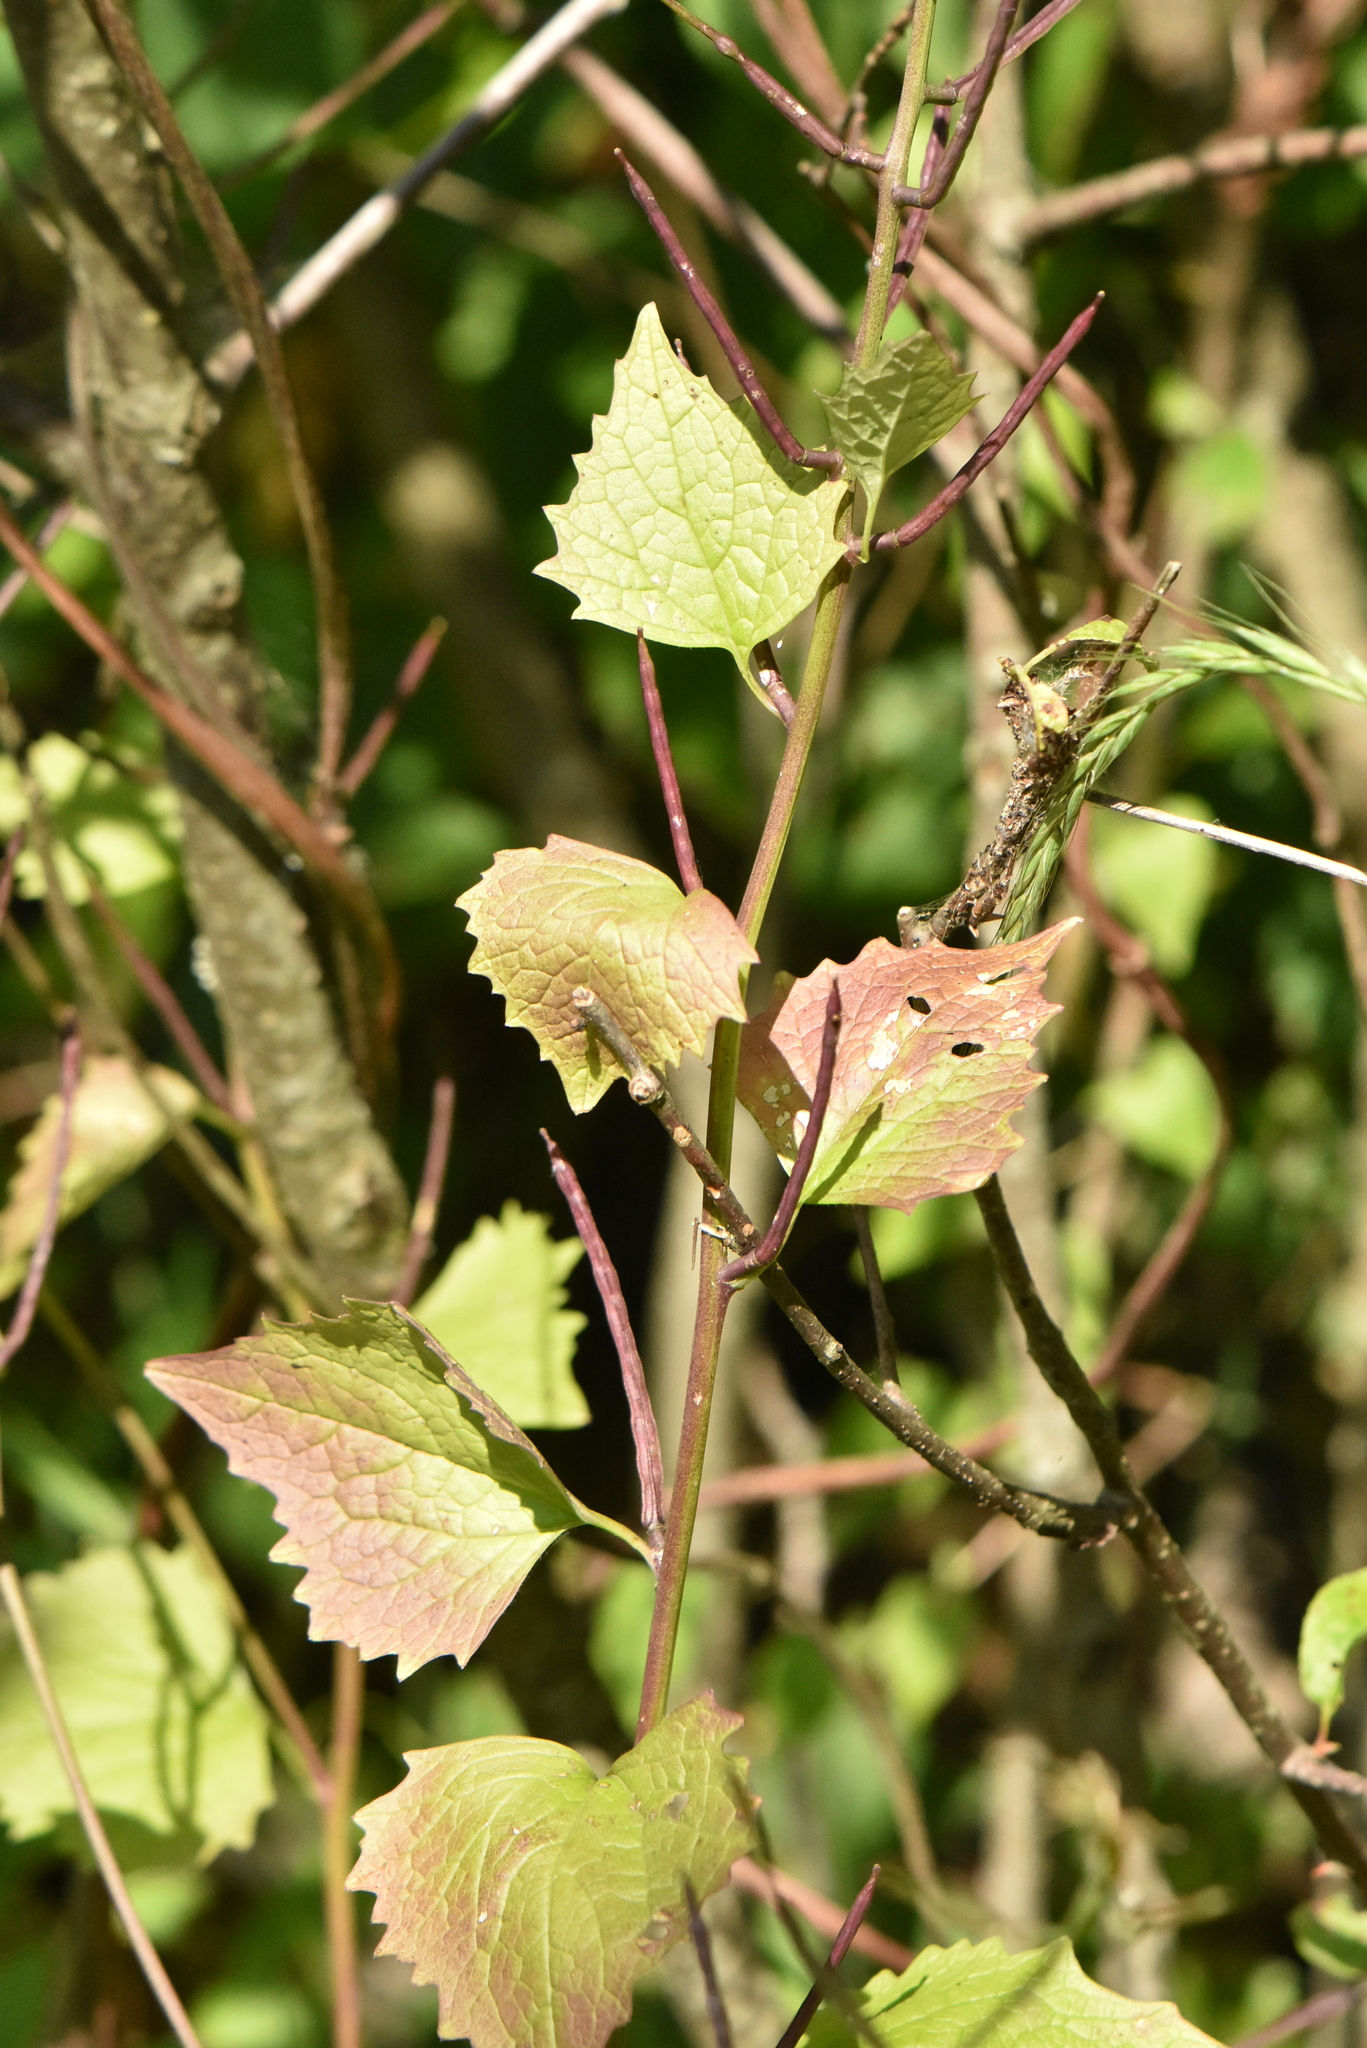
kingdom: Plantae
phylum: Tracheophyta
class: Magnoliopsida
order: Brassicales
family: Brassicaceae
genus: Alliaria
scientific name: Alliaria petiolata
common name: Garlic mustard
